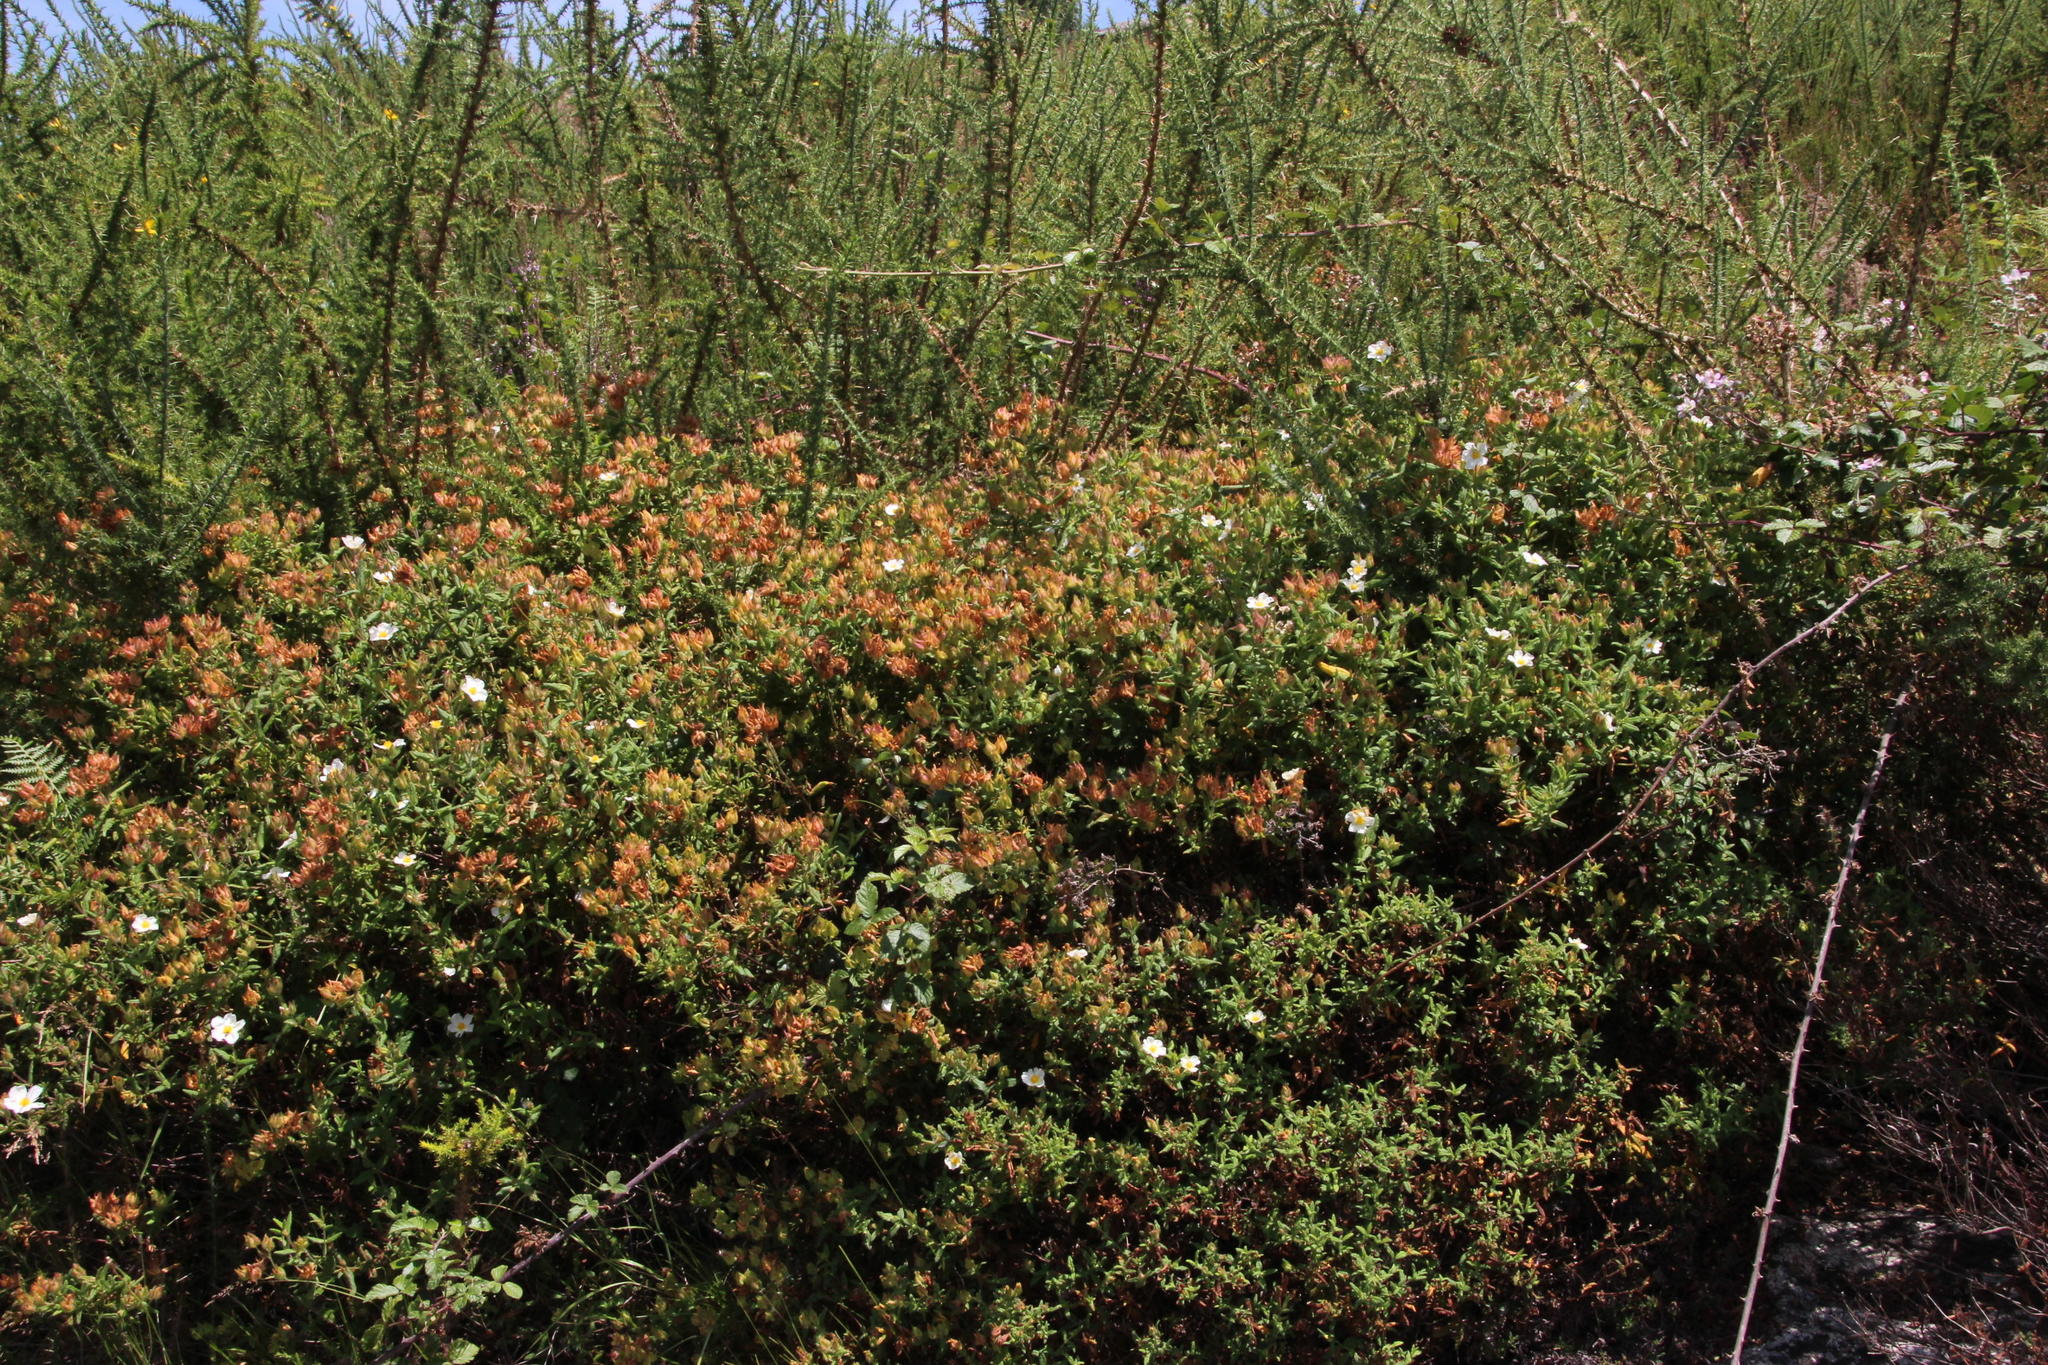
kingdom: Plantae
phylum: Tracheophyta
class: Magnoliopsida
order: Malvales
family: Cistaceae
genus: Cistus
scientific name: Cistus inflatus
